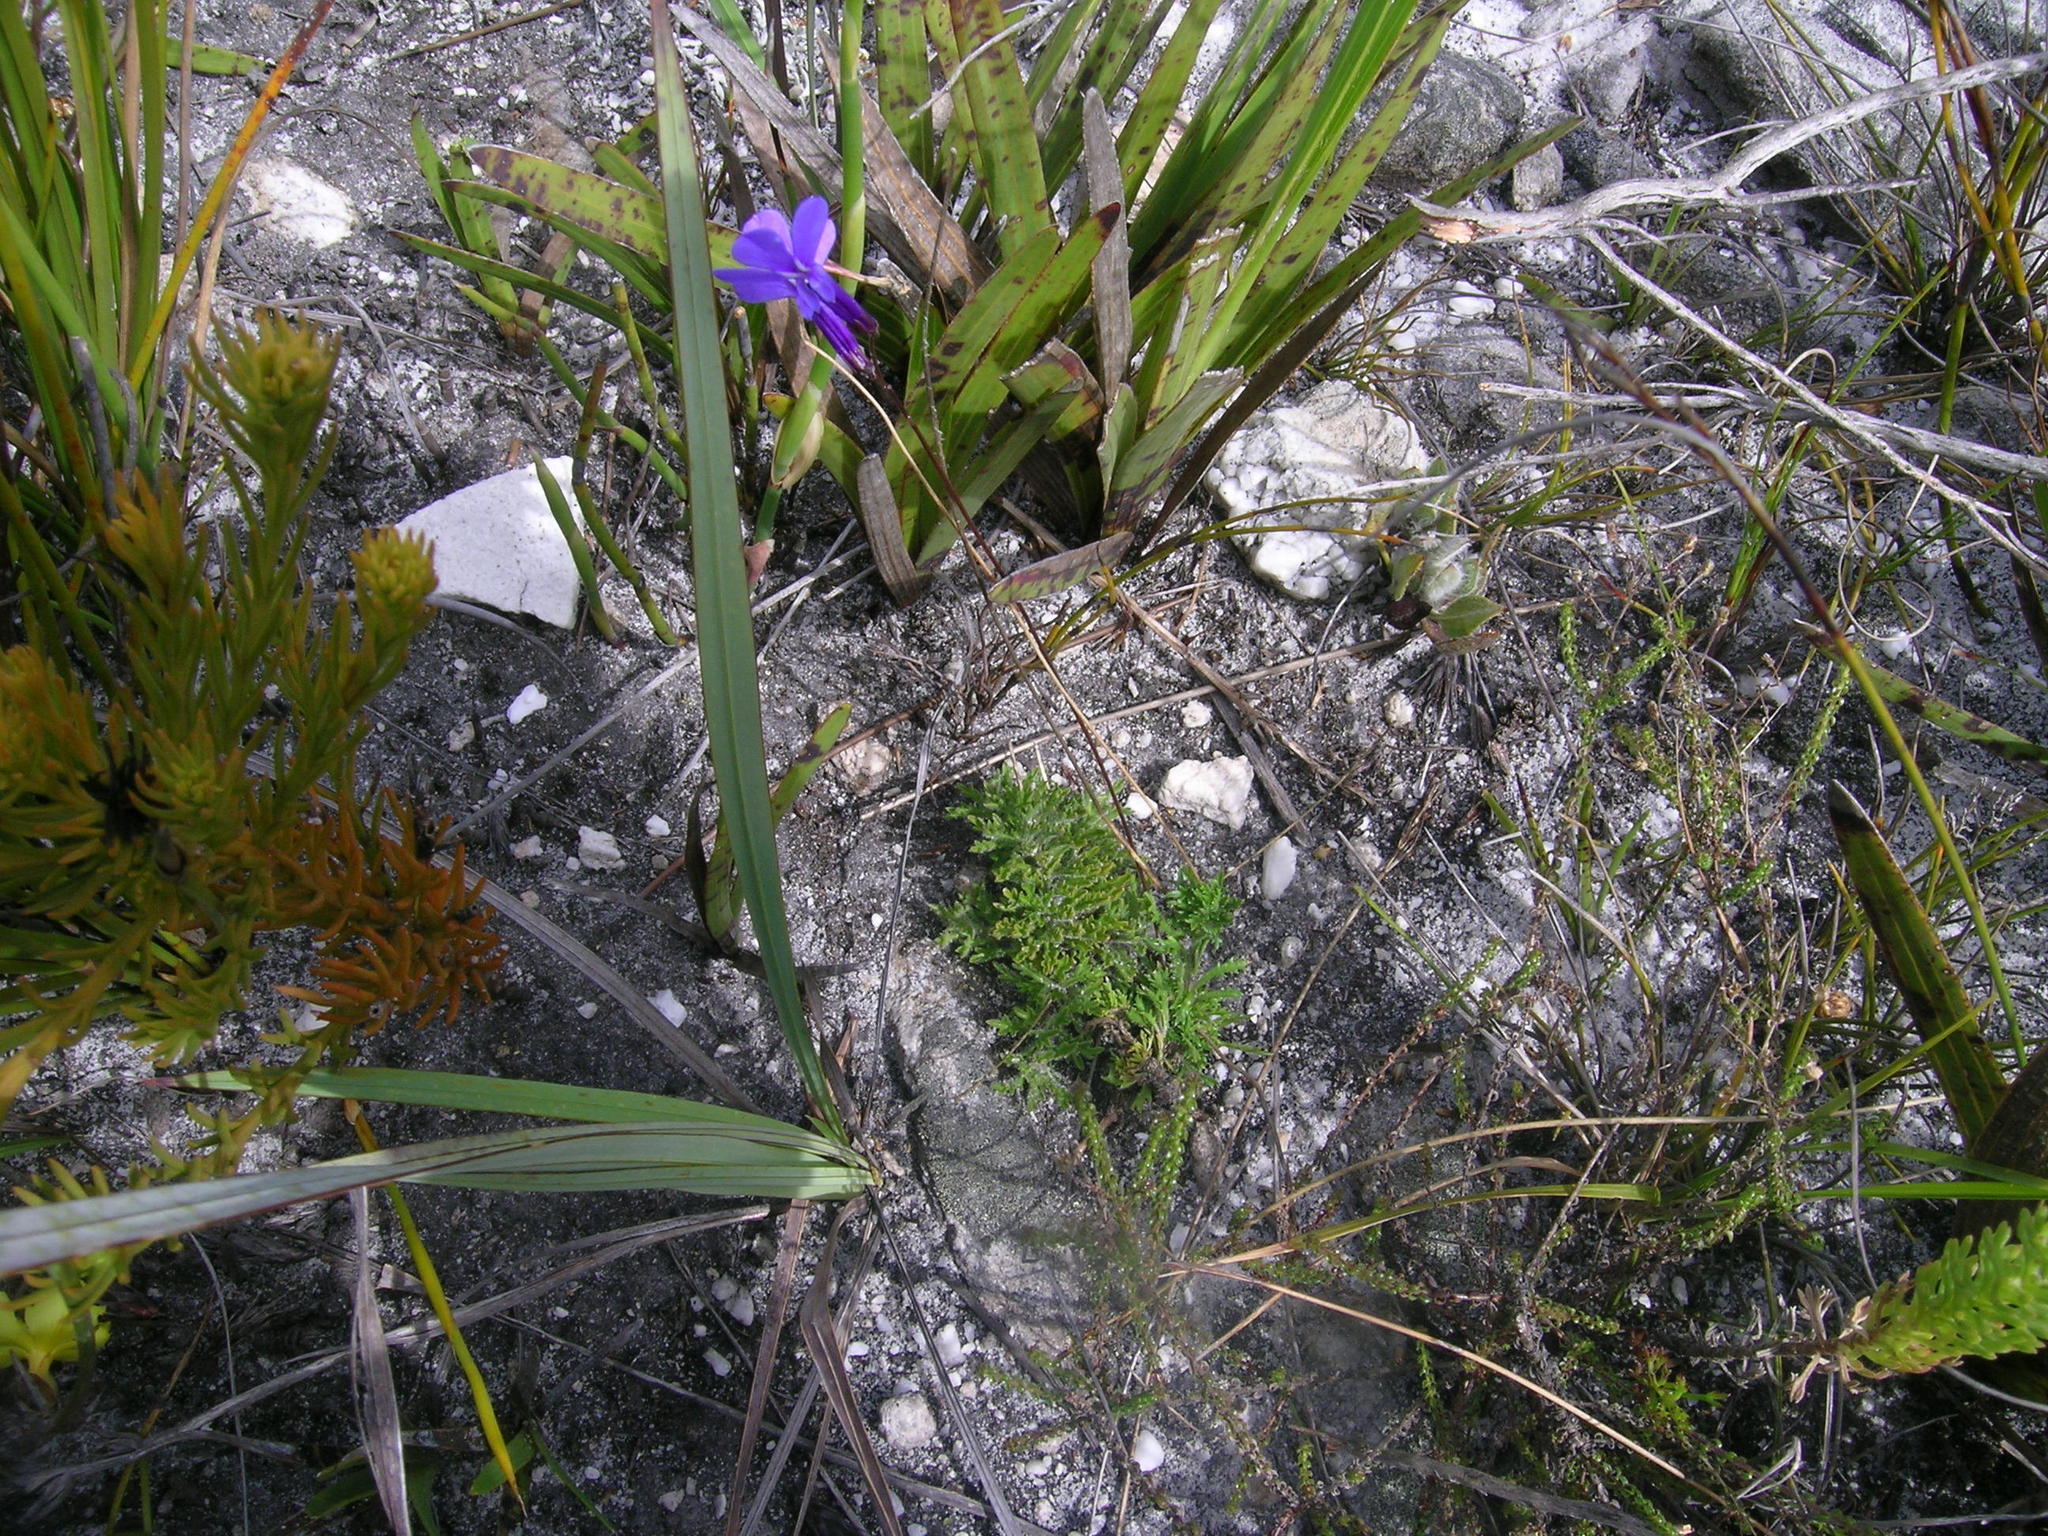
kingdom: Plantae
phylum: Tracheophyta
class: Magnoliopsida
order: Asterales
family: Campanulaceae
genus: Lobelia
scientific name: Lobelia chamaepitys
